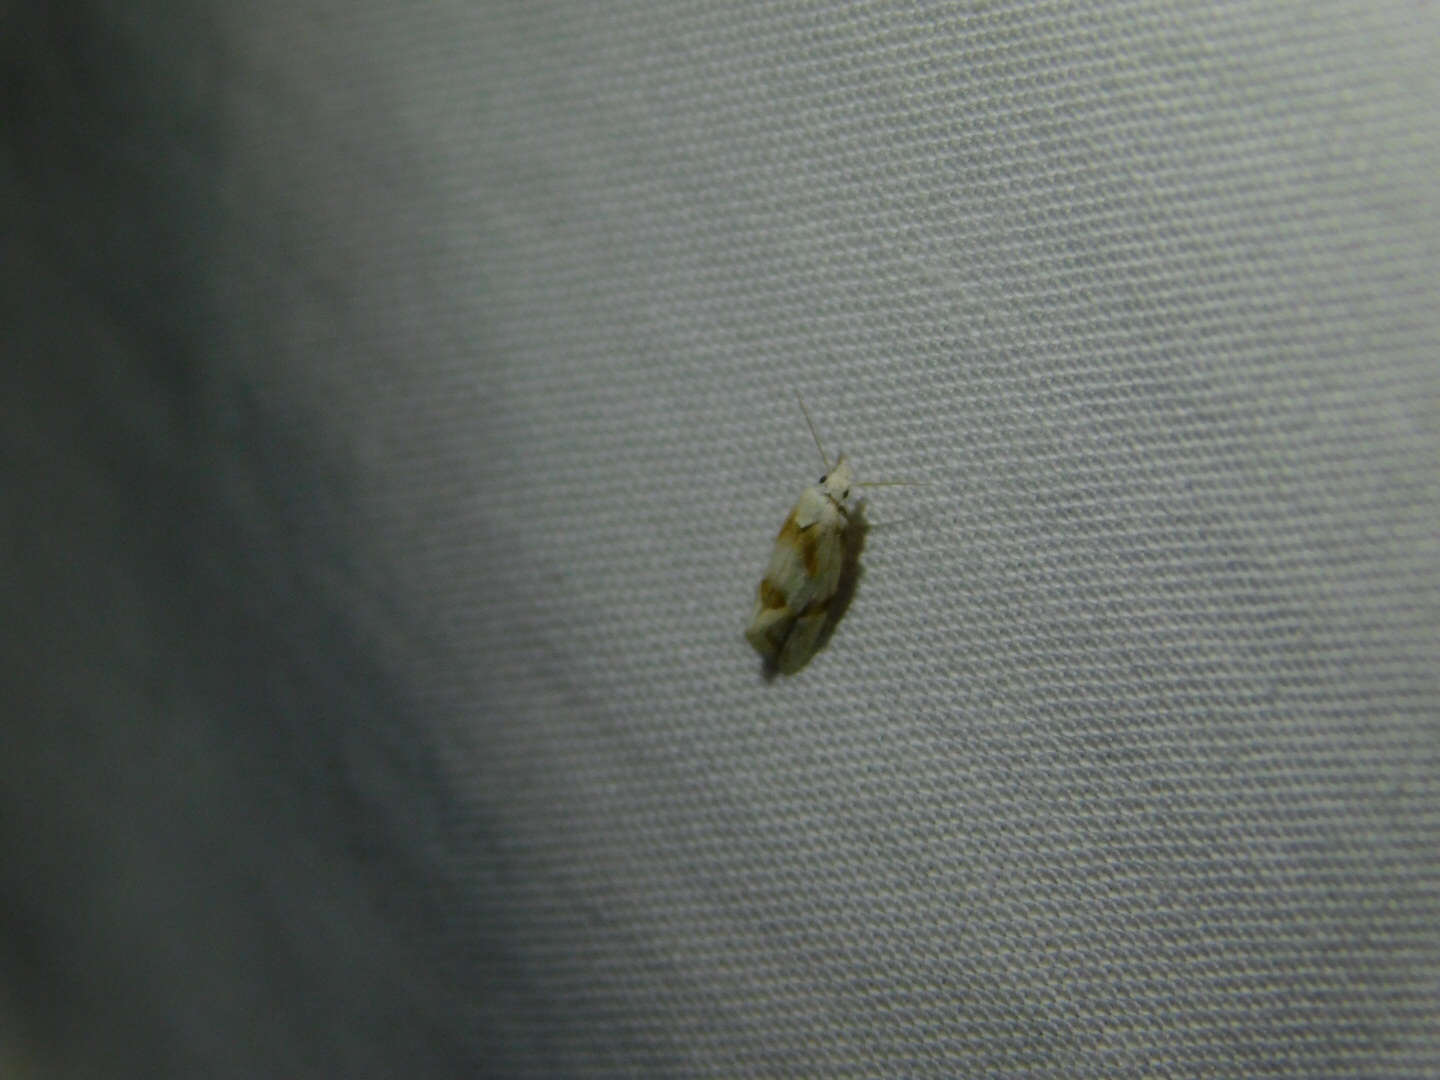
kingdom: Animalia
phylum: Arthropoda
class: Insecta
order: Lepidoptera
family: Tortricidae
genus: Aethes
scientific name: Aethes seriatana
